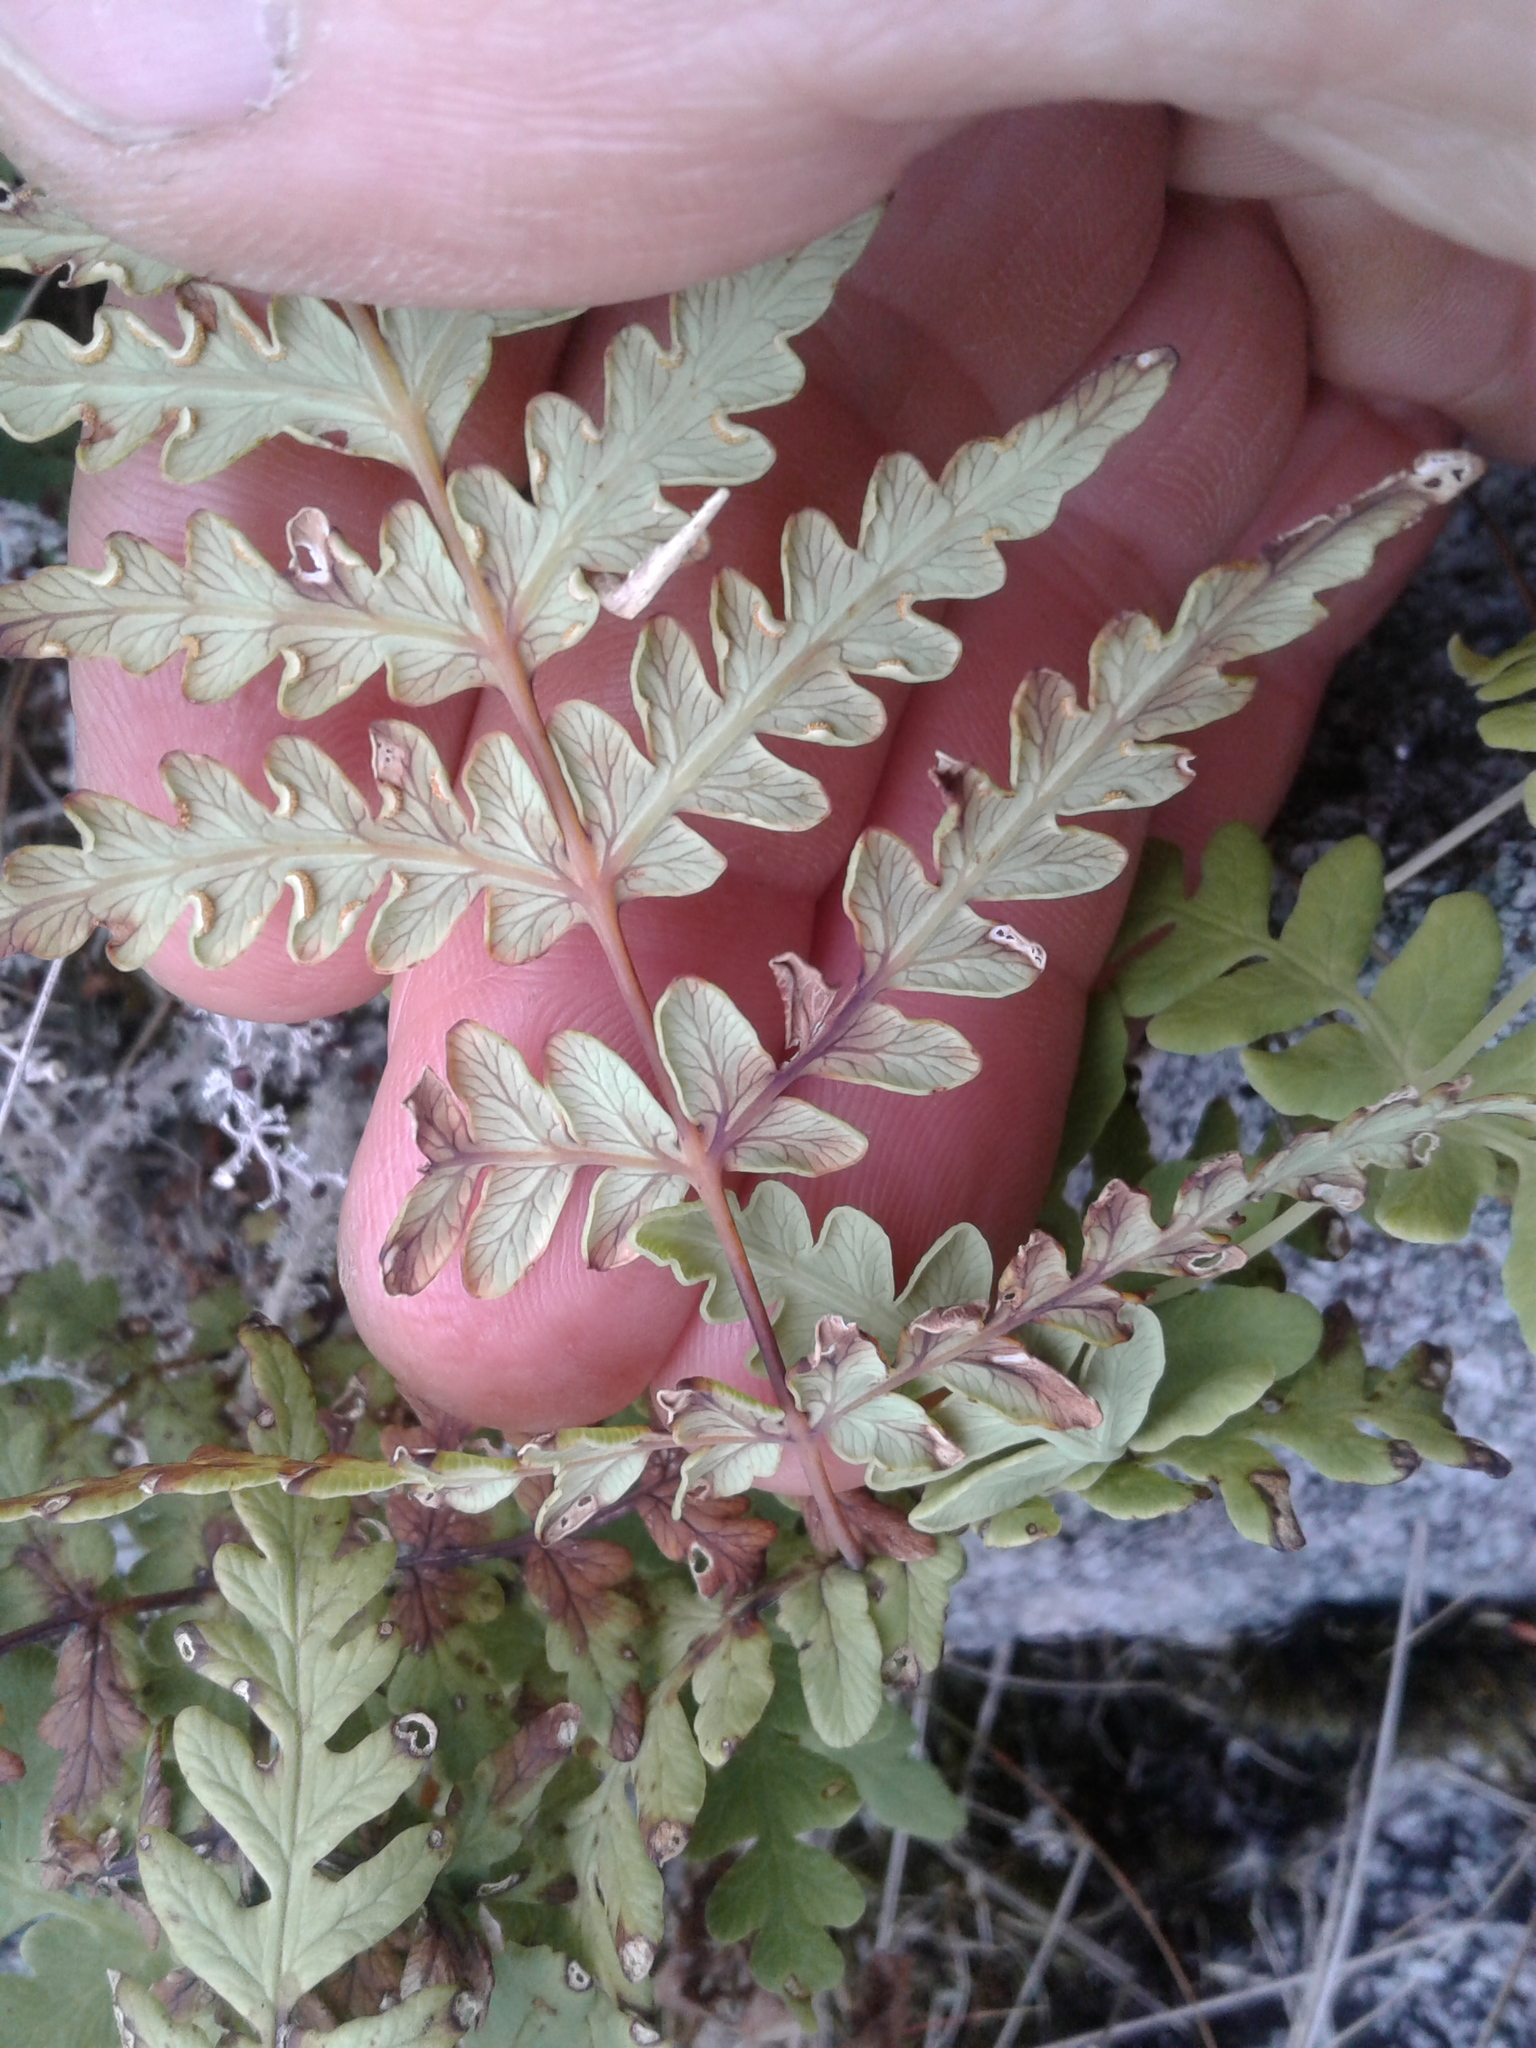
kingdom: Plantae
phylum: Tracheophyta
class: Polypodiopsida
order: Polypodiales
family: Dennstaedtiaceae
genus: Histiopteris
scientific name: Histiopteris incisa
